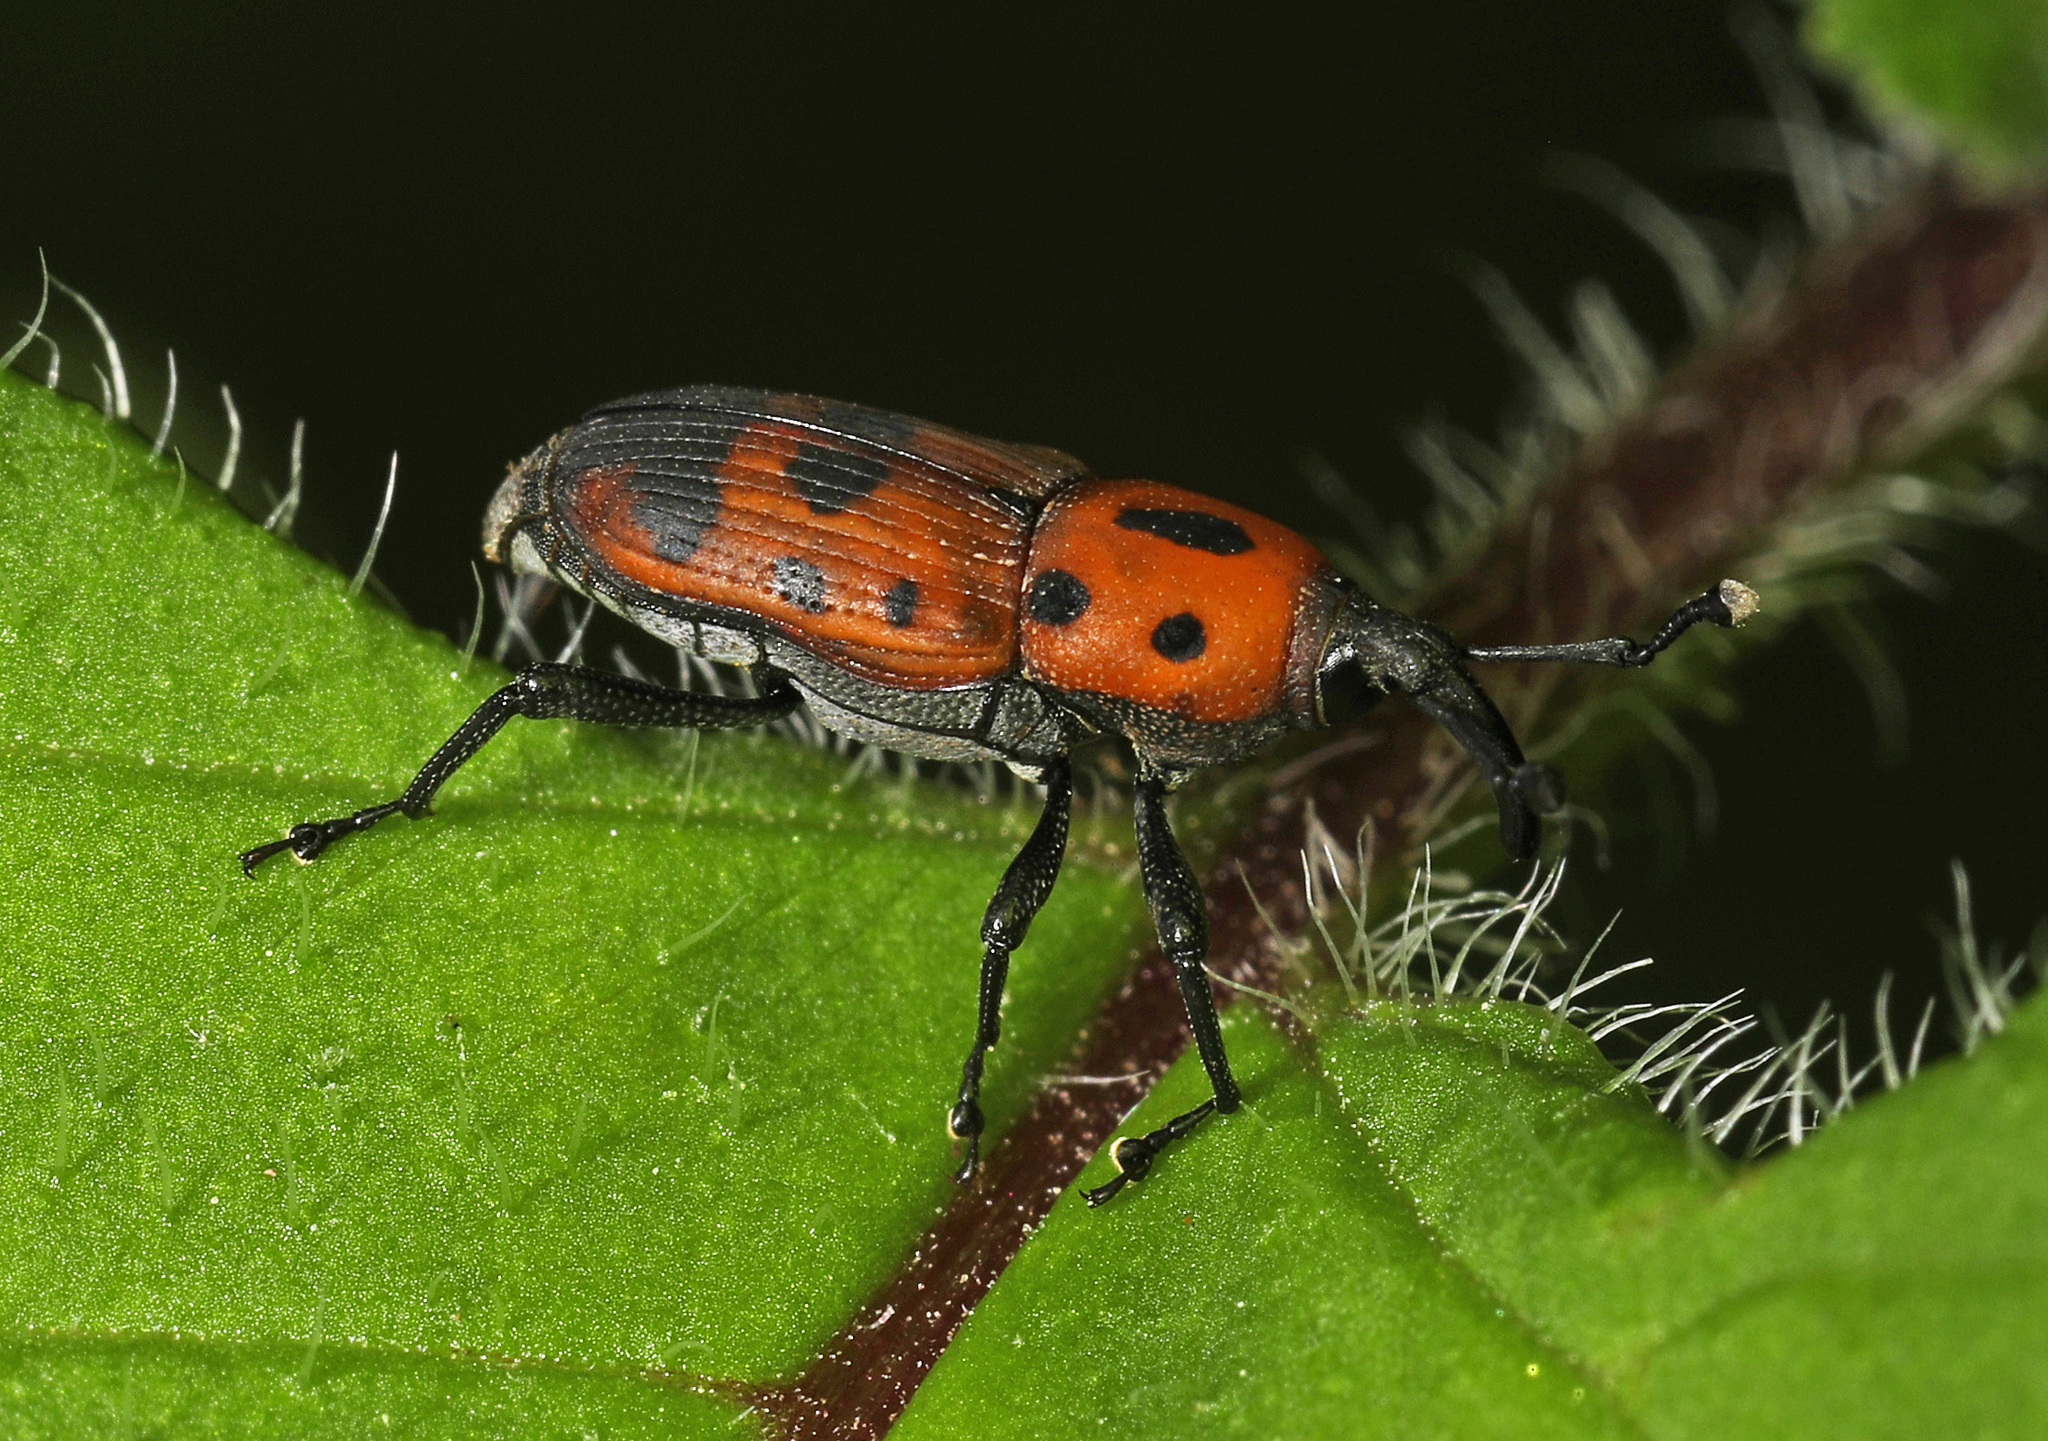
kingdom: Animalia
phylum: Arthropoda
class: Insecta
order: Coleoptera
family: Dryophthoridae
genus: Rhodobaenus
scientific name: Rhodobaenus quinquepunctatus
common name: Cocklebur weevil
